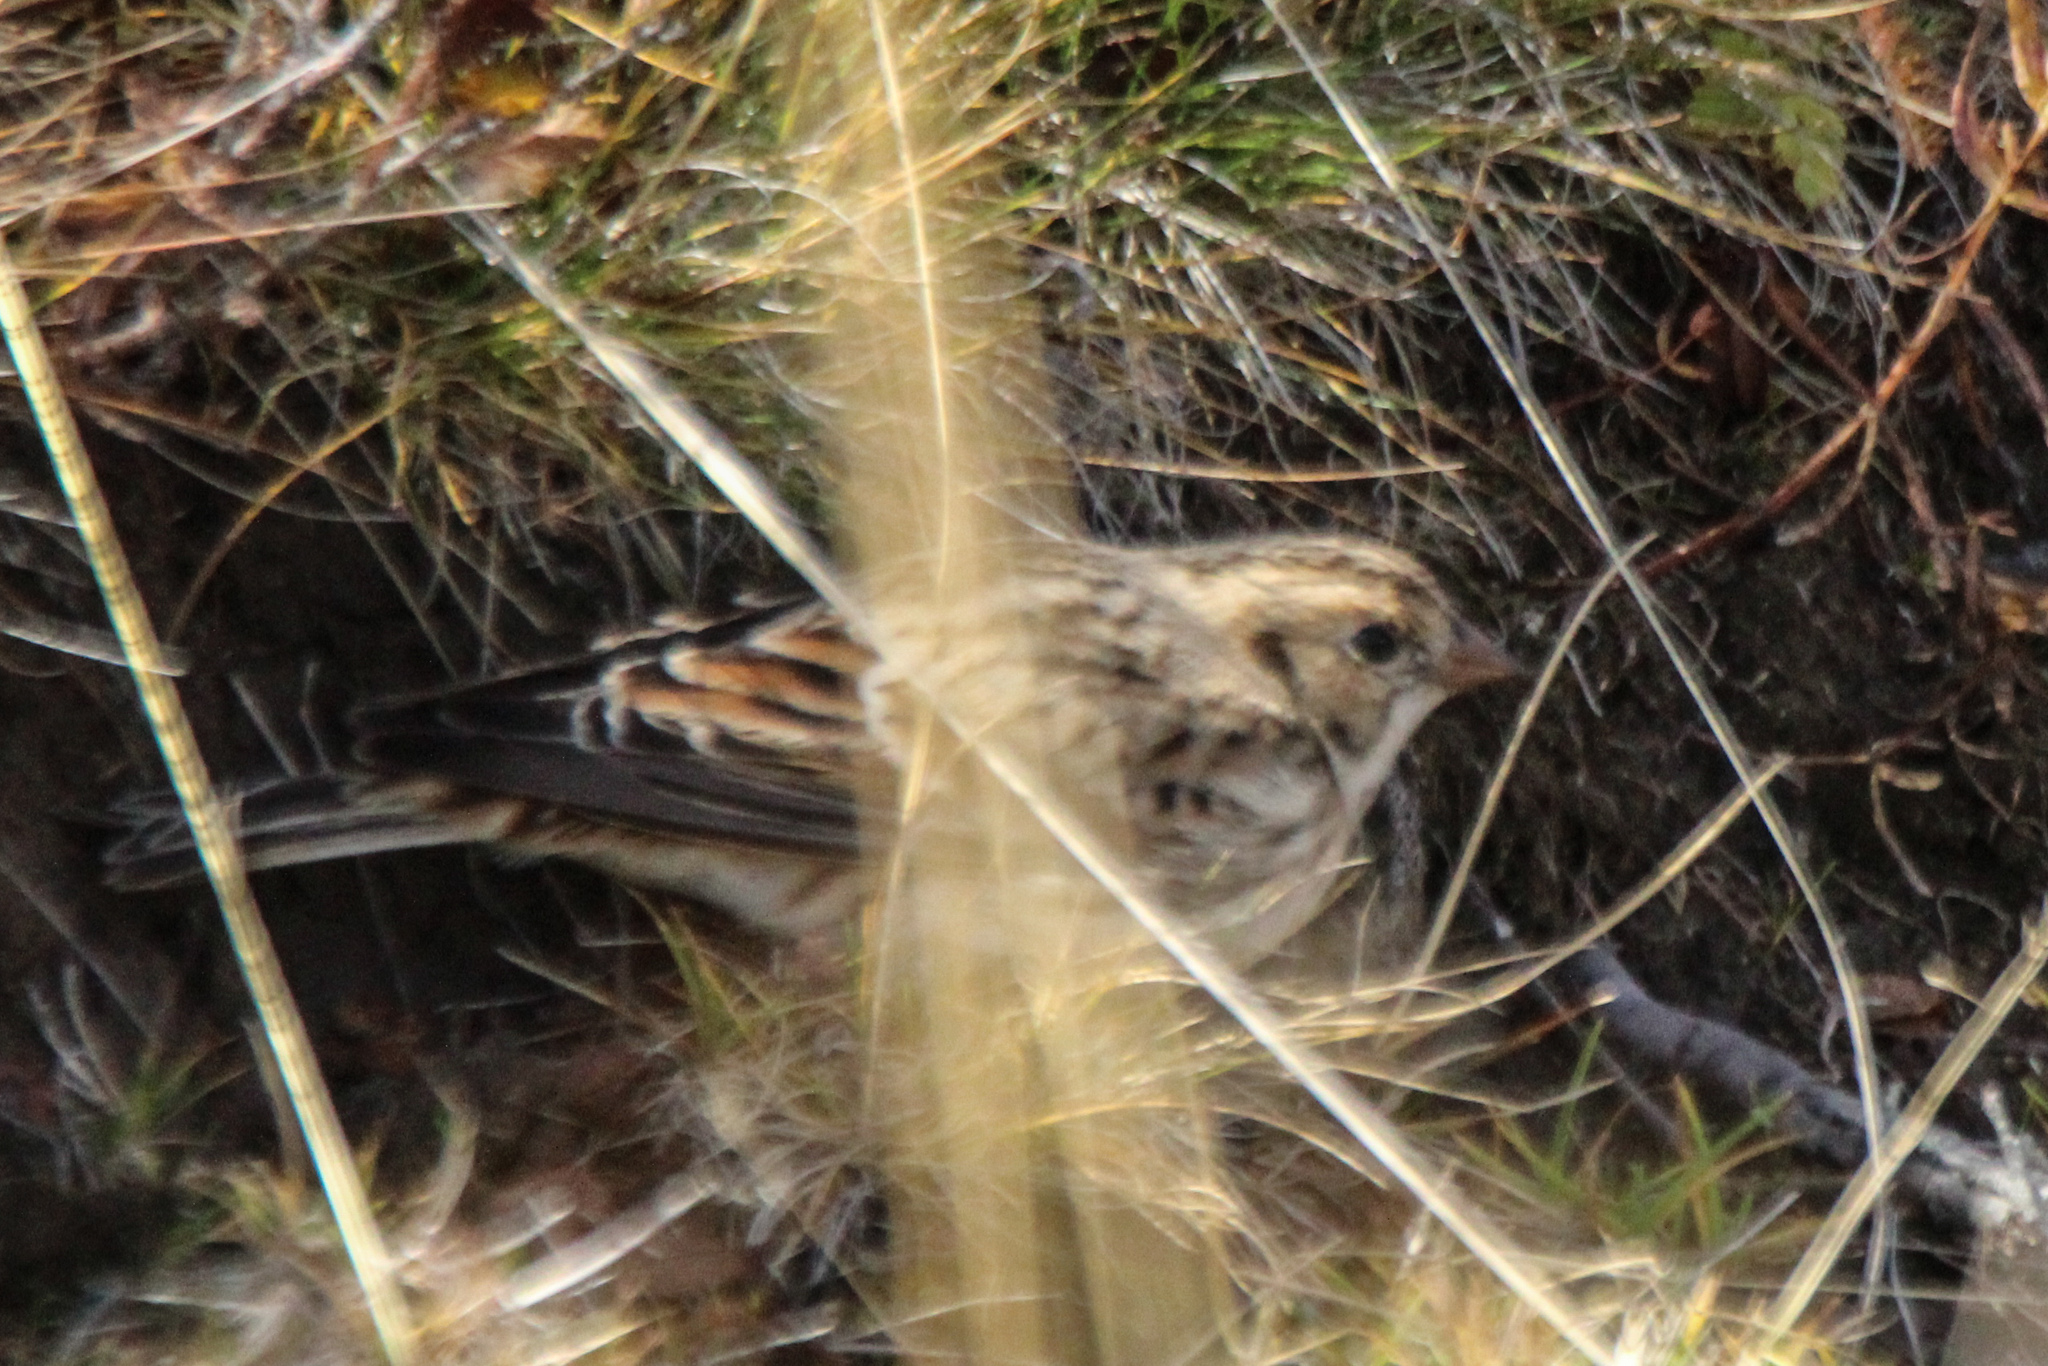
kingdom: Animalia
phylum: Chordata
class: Aves
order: Passeriformes
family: Calcariidae
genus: Calcarius
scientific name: Calcarius lapponicus
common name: Lapland longspur
